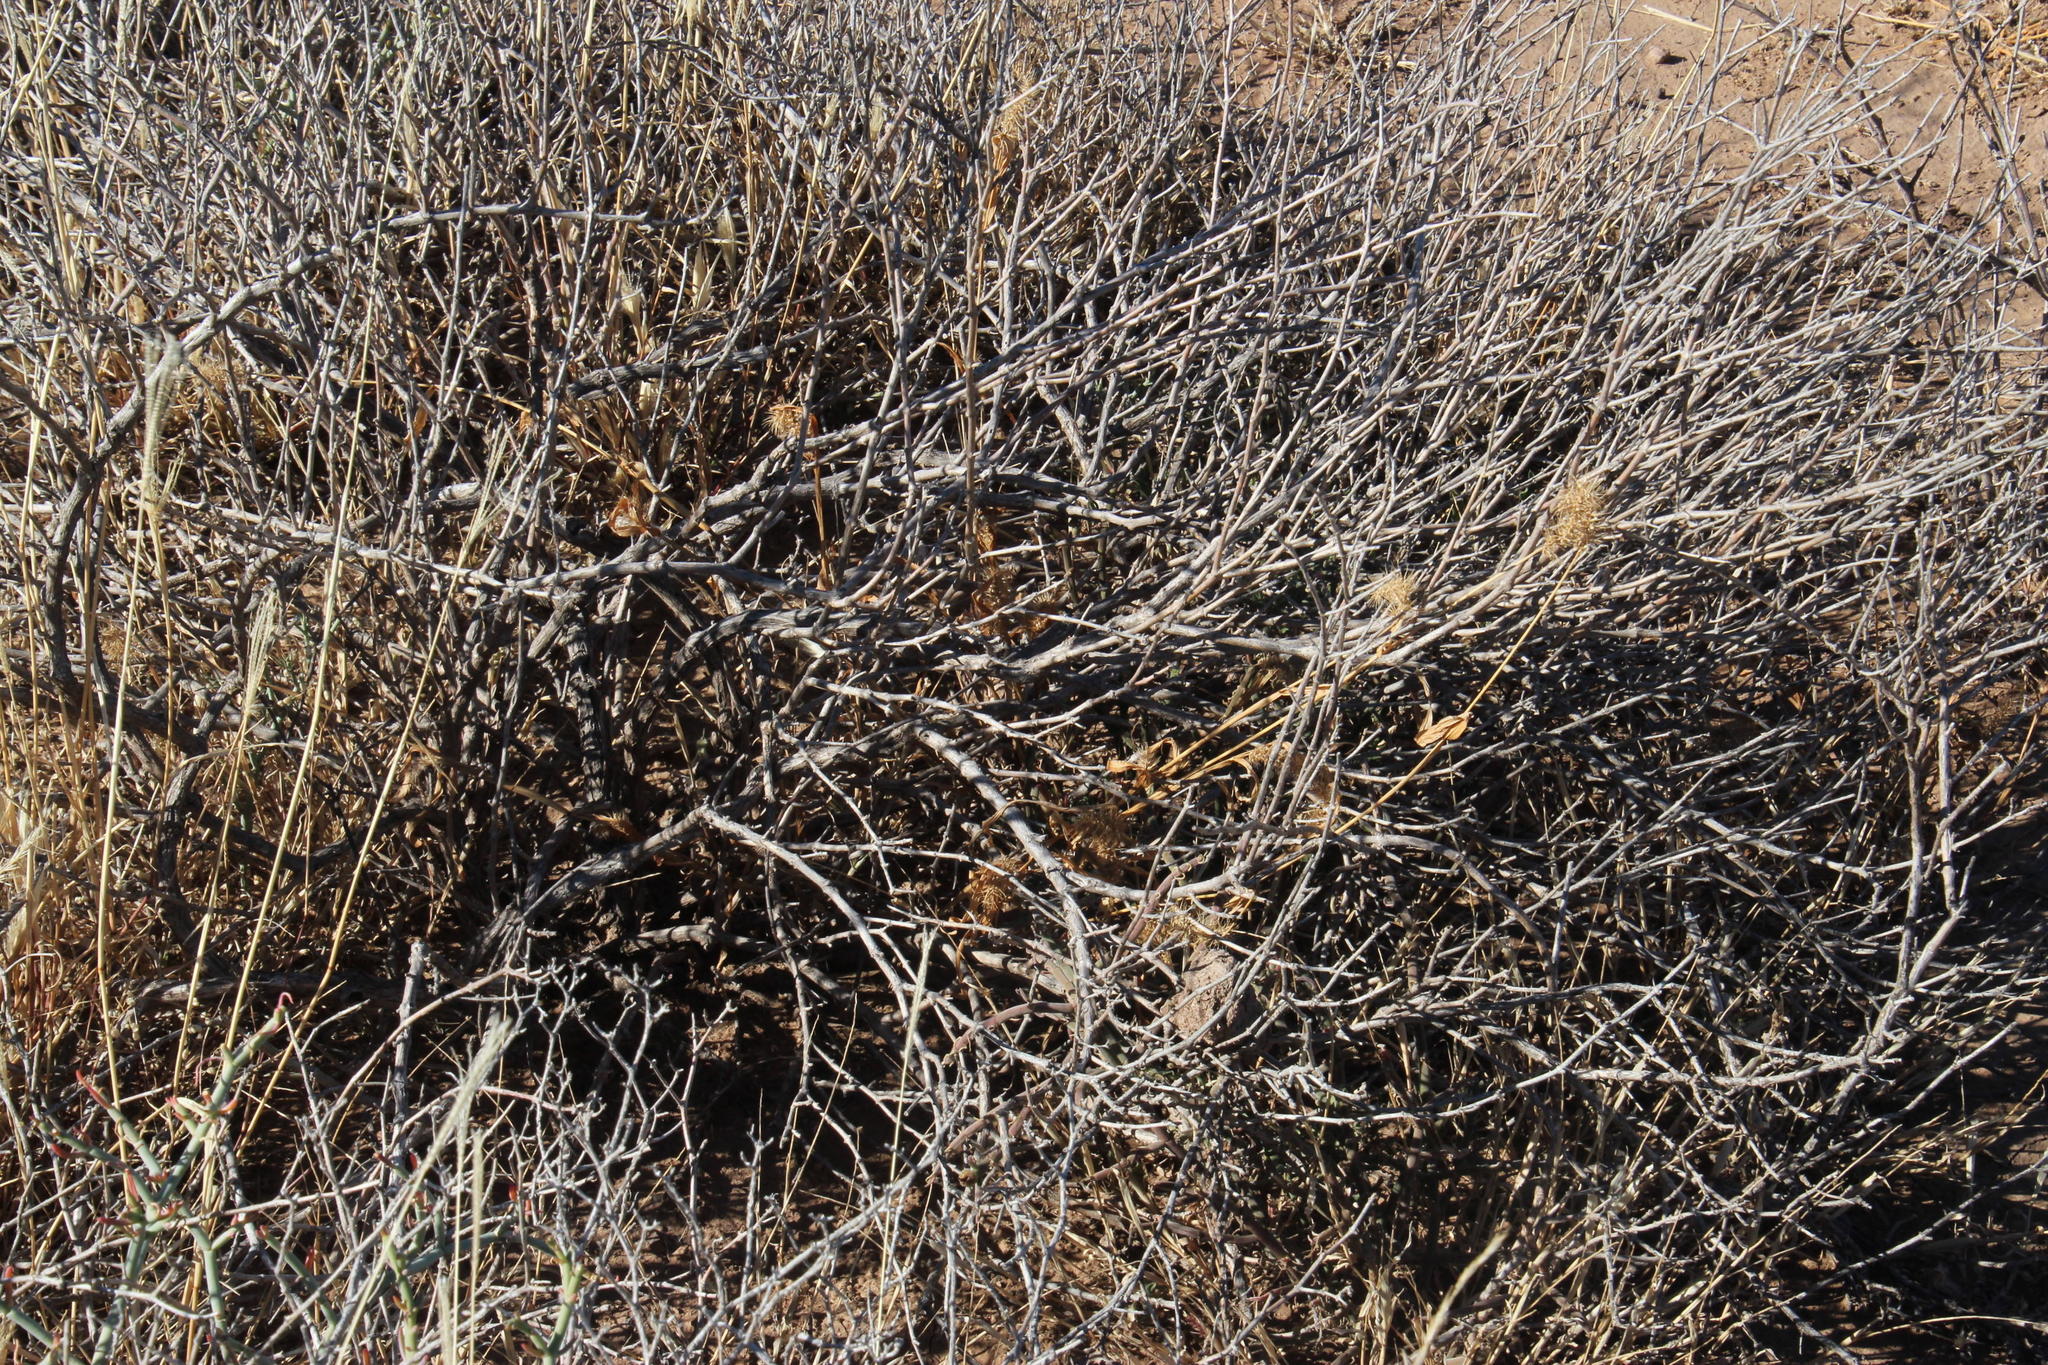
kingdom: Plantae
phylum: Tracheophyta
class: Liliopsida
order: Poales
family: Poaceae
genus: Setaria
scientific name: Setaria verticillata
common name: Hooked bristlegrass
